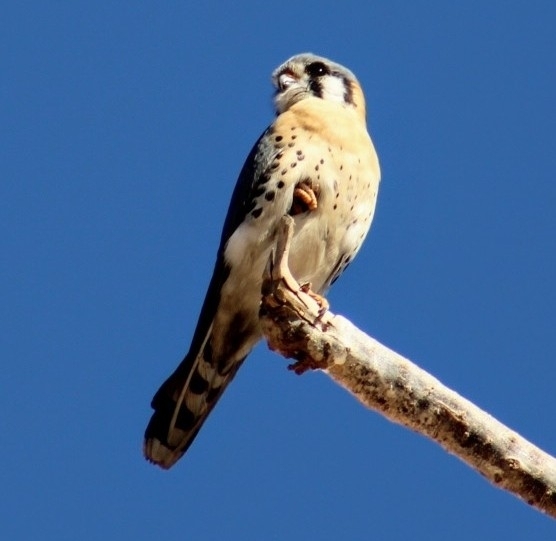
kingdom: Animalia
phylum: Chordata
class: Aves
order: Falconiformes
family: Falconidae
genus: Falco
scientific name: Falco sparverius
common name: American kestrel
